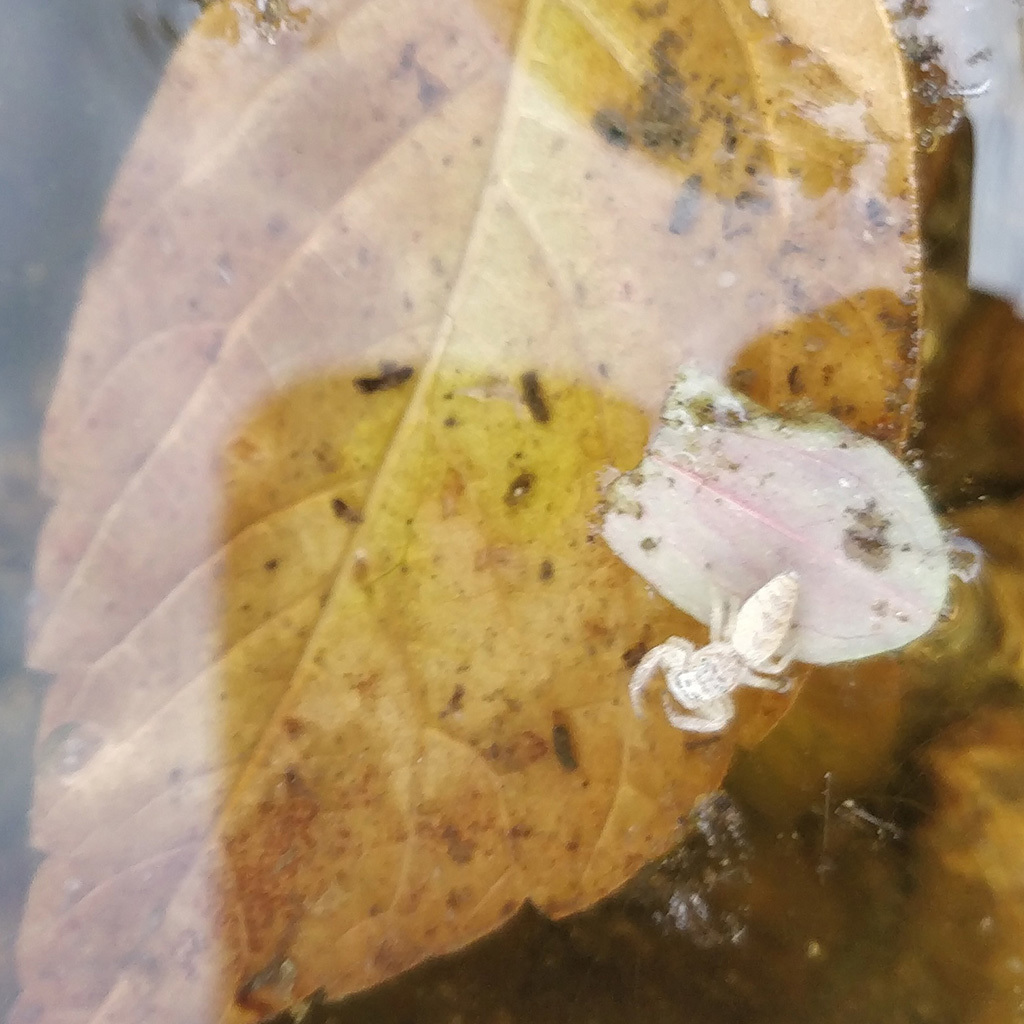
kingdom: Animalia
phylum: Arthropoda
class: Arachnida
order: Araneae
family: Salticidae
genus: Hentzia
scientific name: Hentzia mitrata
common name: White-jawed jumping spider
